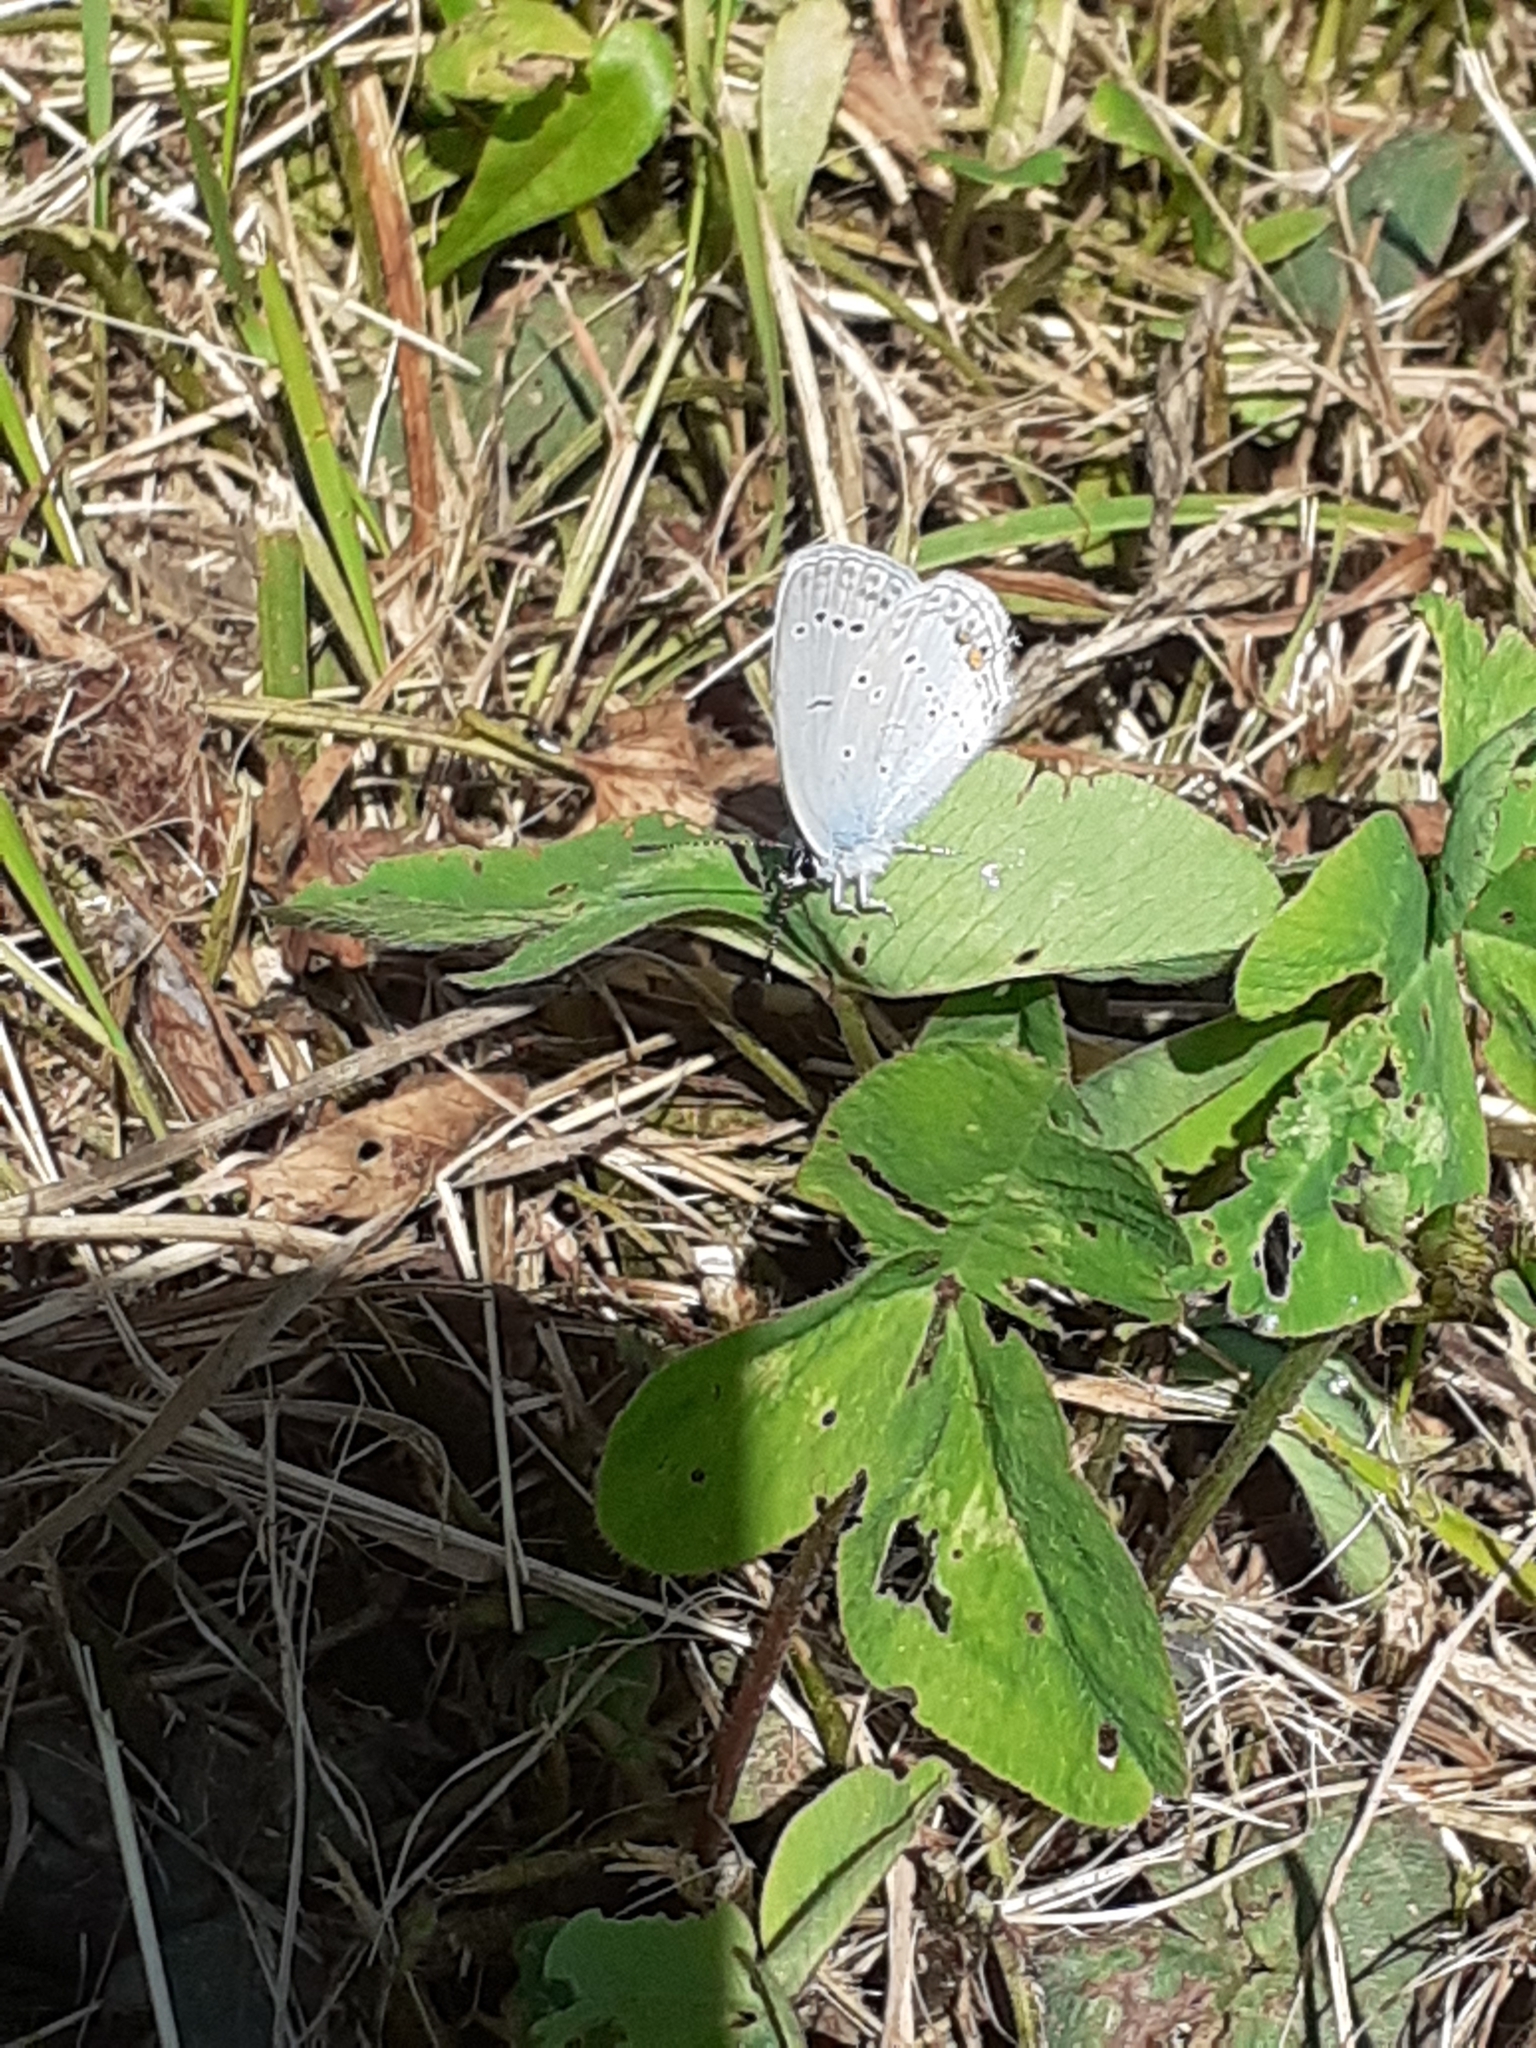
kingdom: Animalia
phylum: Arthropoda
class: Insecta
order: Lepidoptera
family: Lycaenidae
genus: Elkalyce
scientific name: Elkalyce argiades
